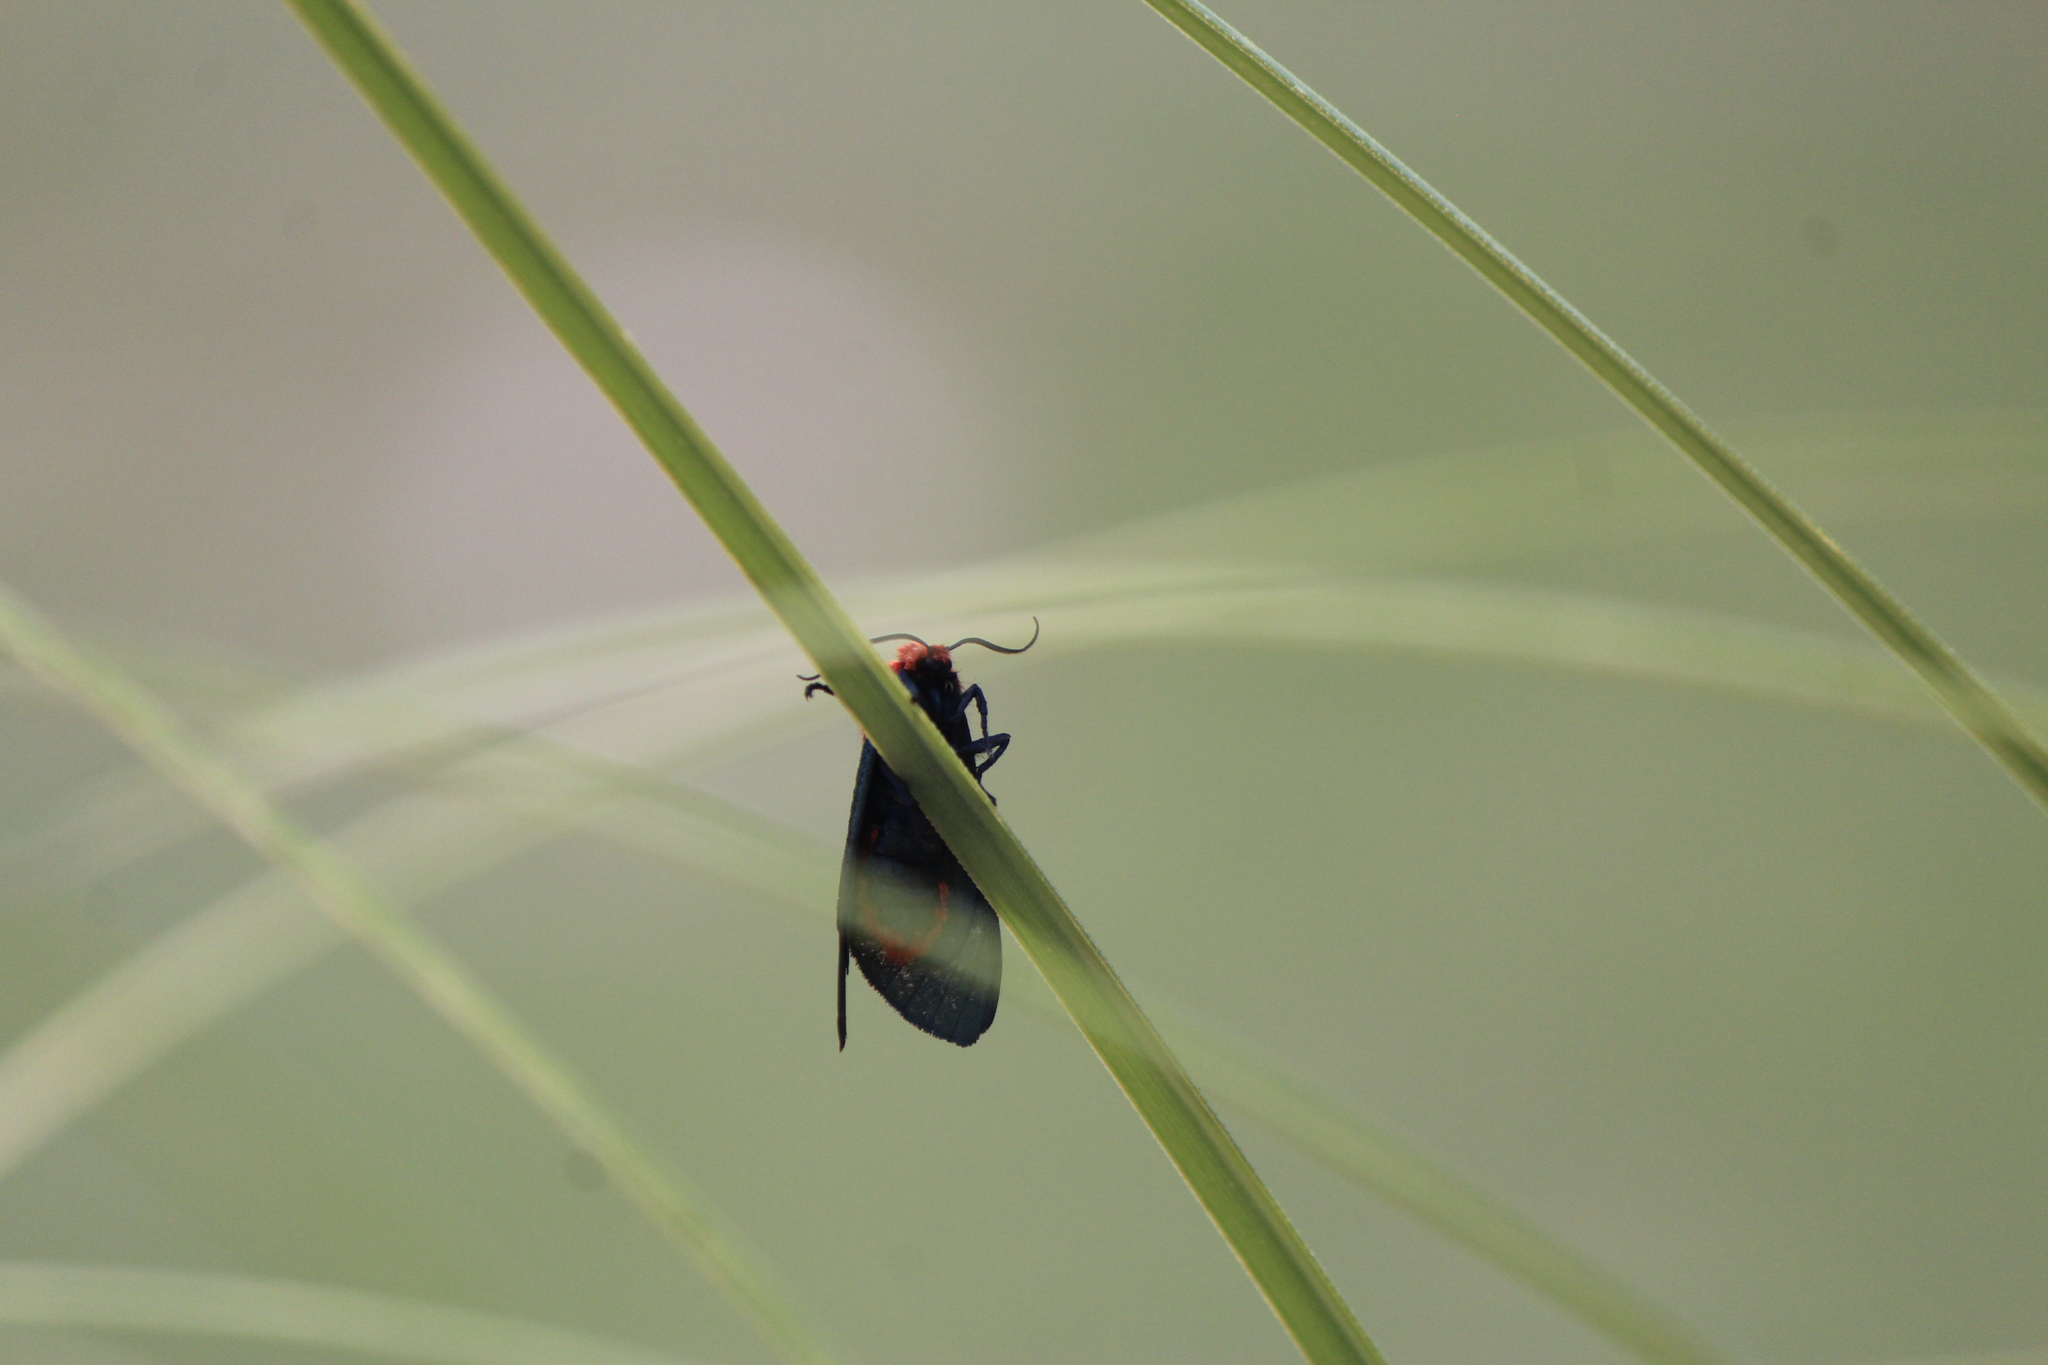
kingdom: Animalia
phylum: Arthropoda
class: Insecta
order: Lepidoptera
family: Erebidae
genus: Lerina
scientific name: Lerina incarnata
